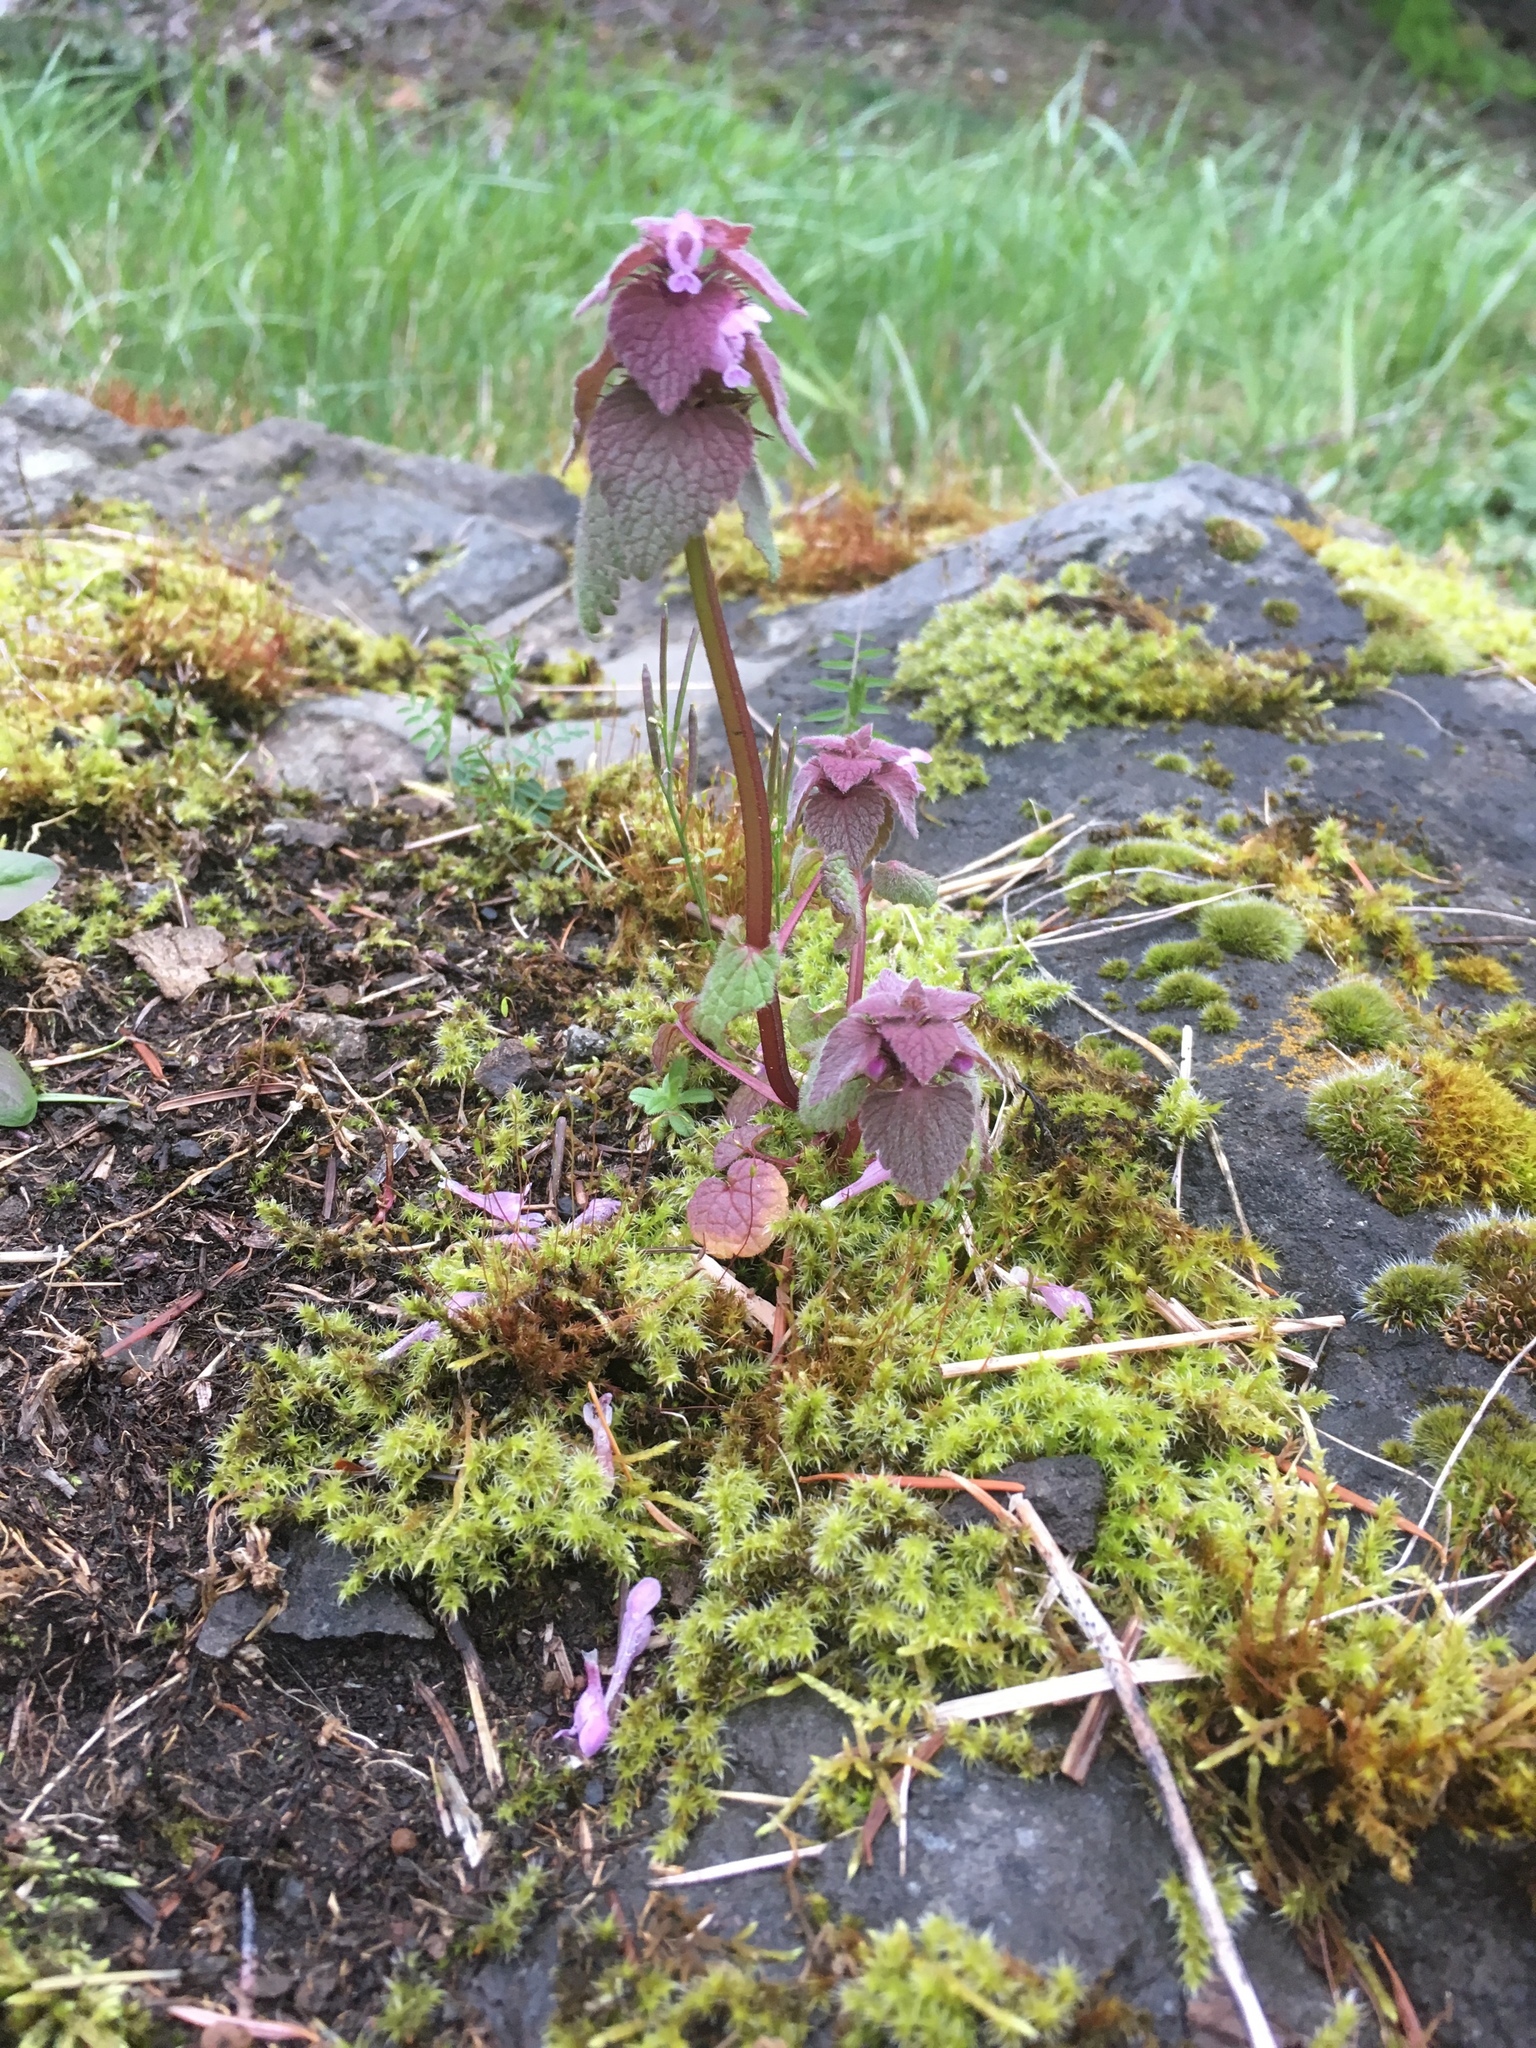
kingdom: Plantae
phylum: Tracheophyta
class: Magnoliopsida
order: Lamiales
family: Lamiaceae
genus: Lamium
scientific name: Lamium purpureum
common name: Red dead-nettle
